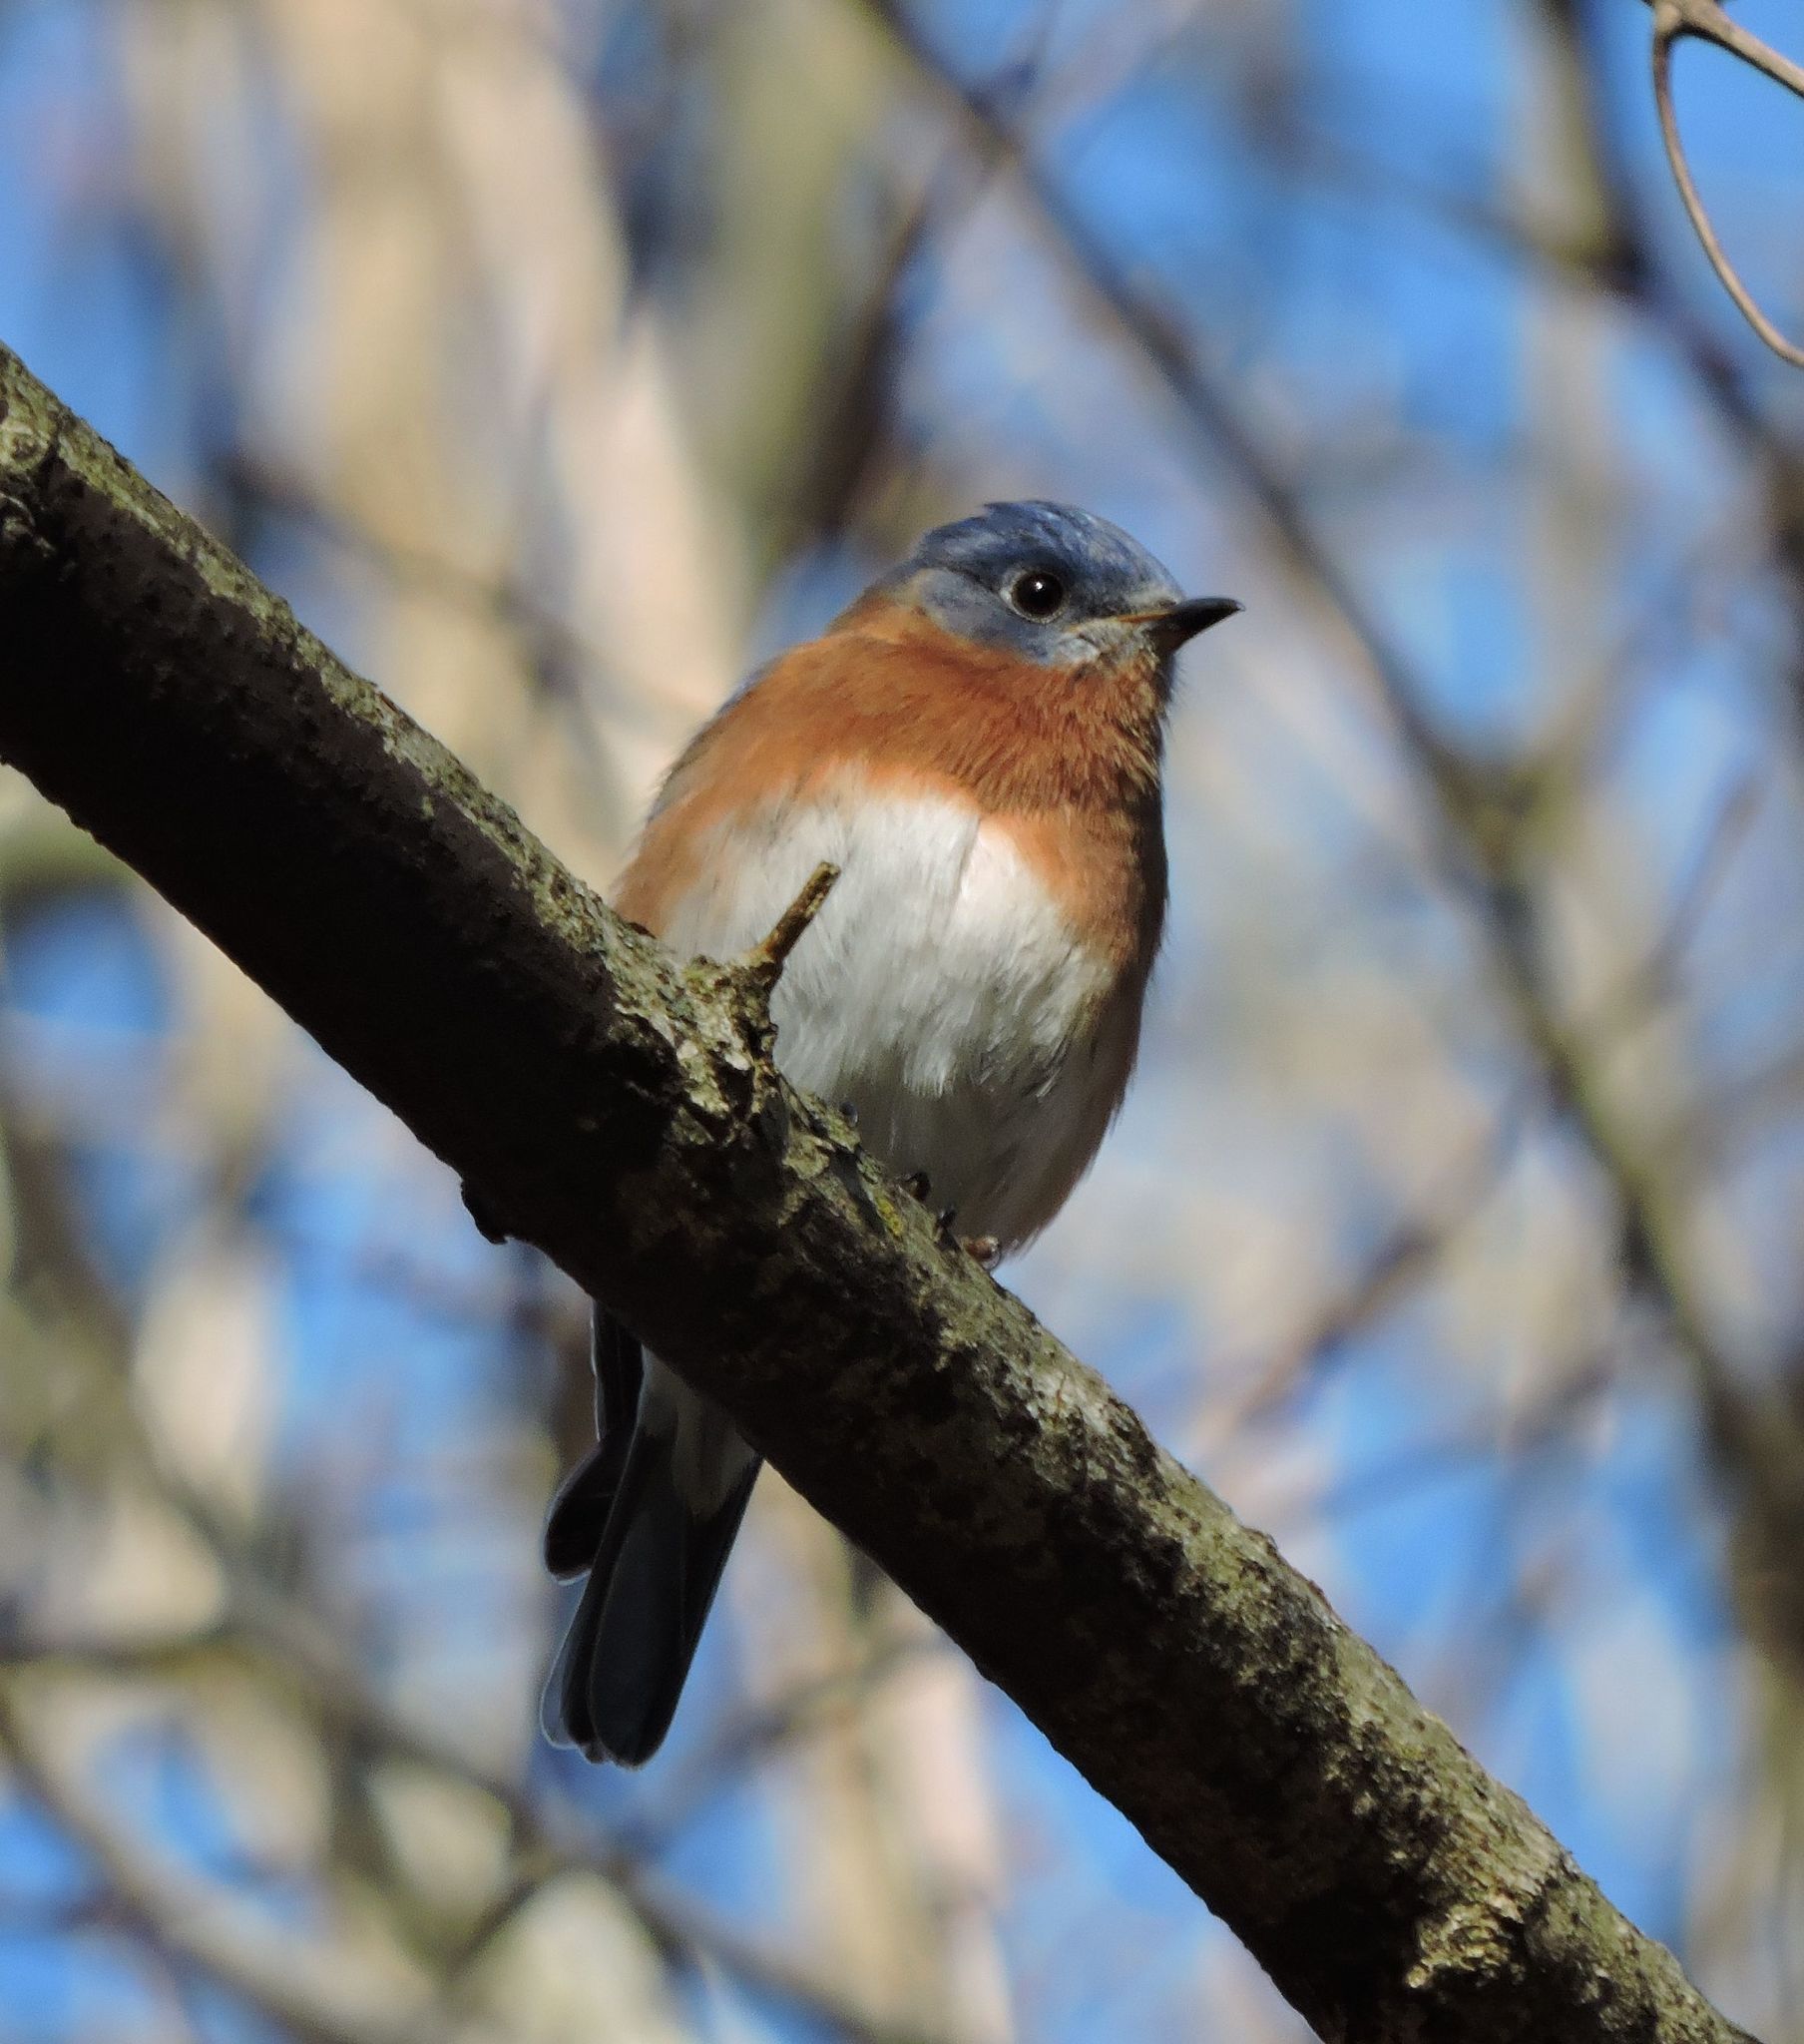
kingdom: Animalia
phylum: Chordata
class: Aves
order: Passeriformes
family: Turdidae
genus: Sialia
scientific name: Sialia sialis
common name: Eastern bluebird
